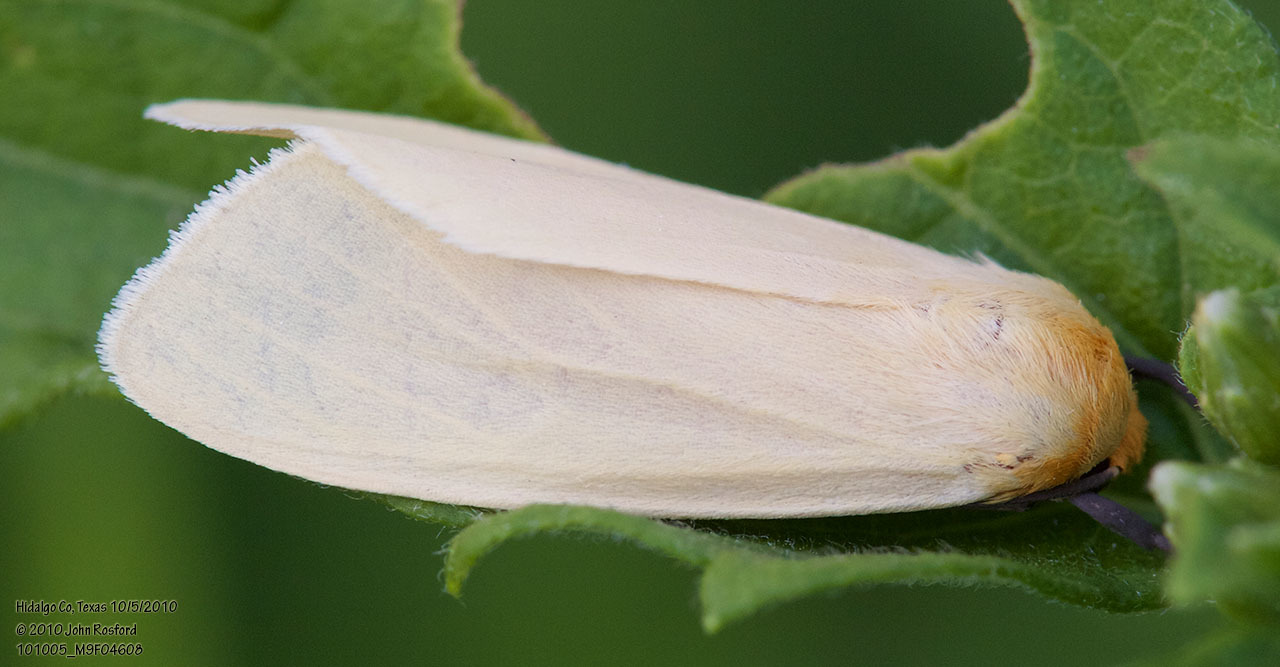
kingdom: Animalia
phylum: Arthropoda
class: Insecta
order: Lepidoptera
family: Erebidae
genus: Pareuchaetes
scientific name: Pareuchaetes insulata
